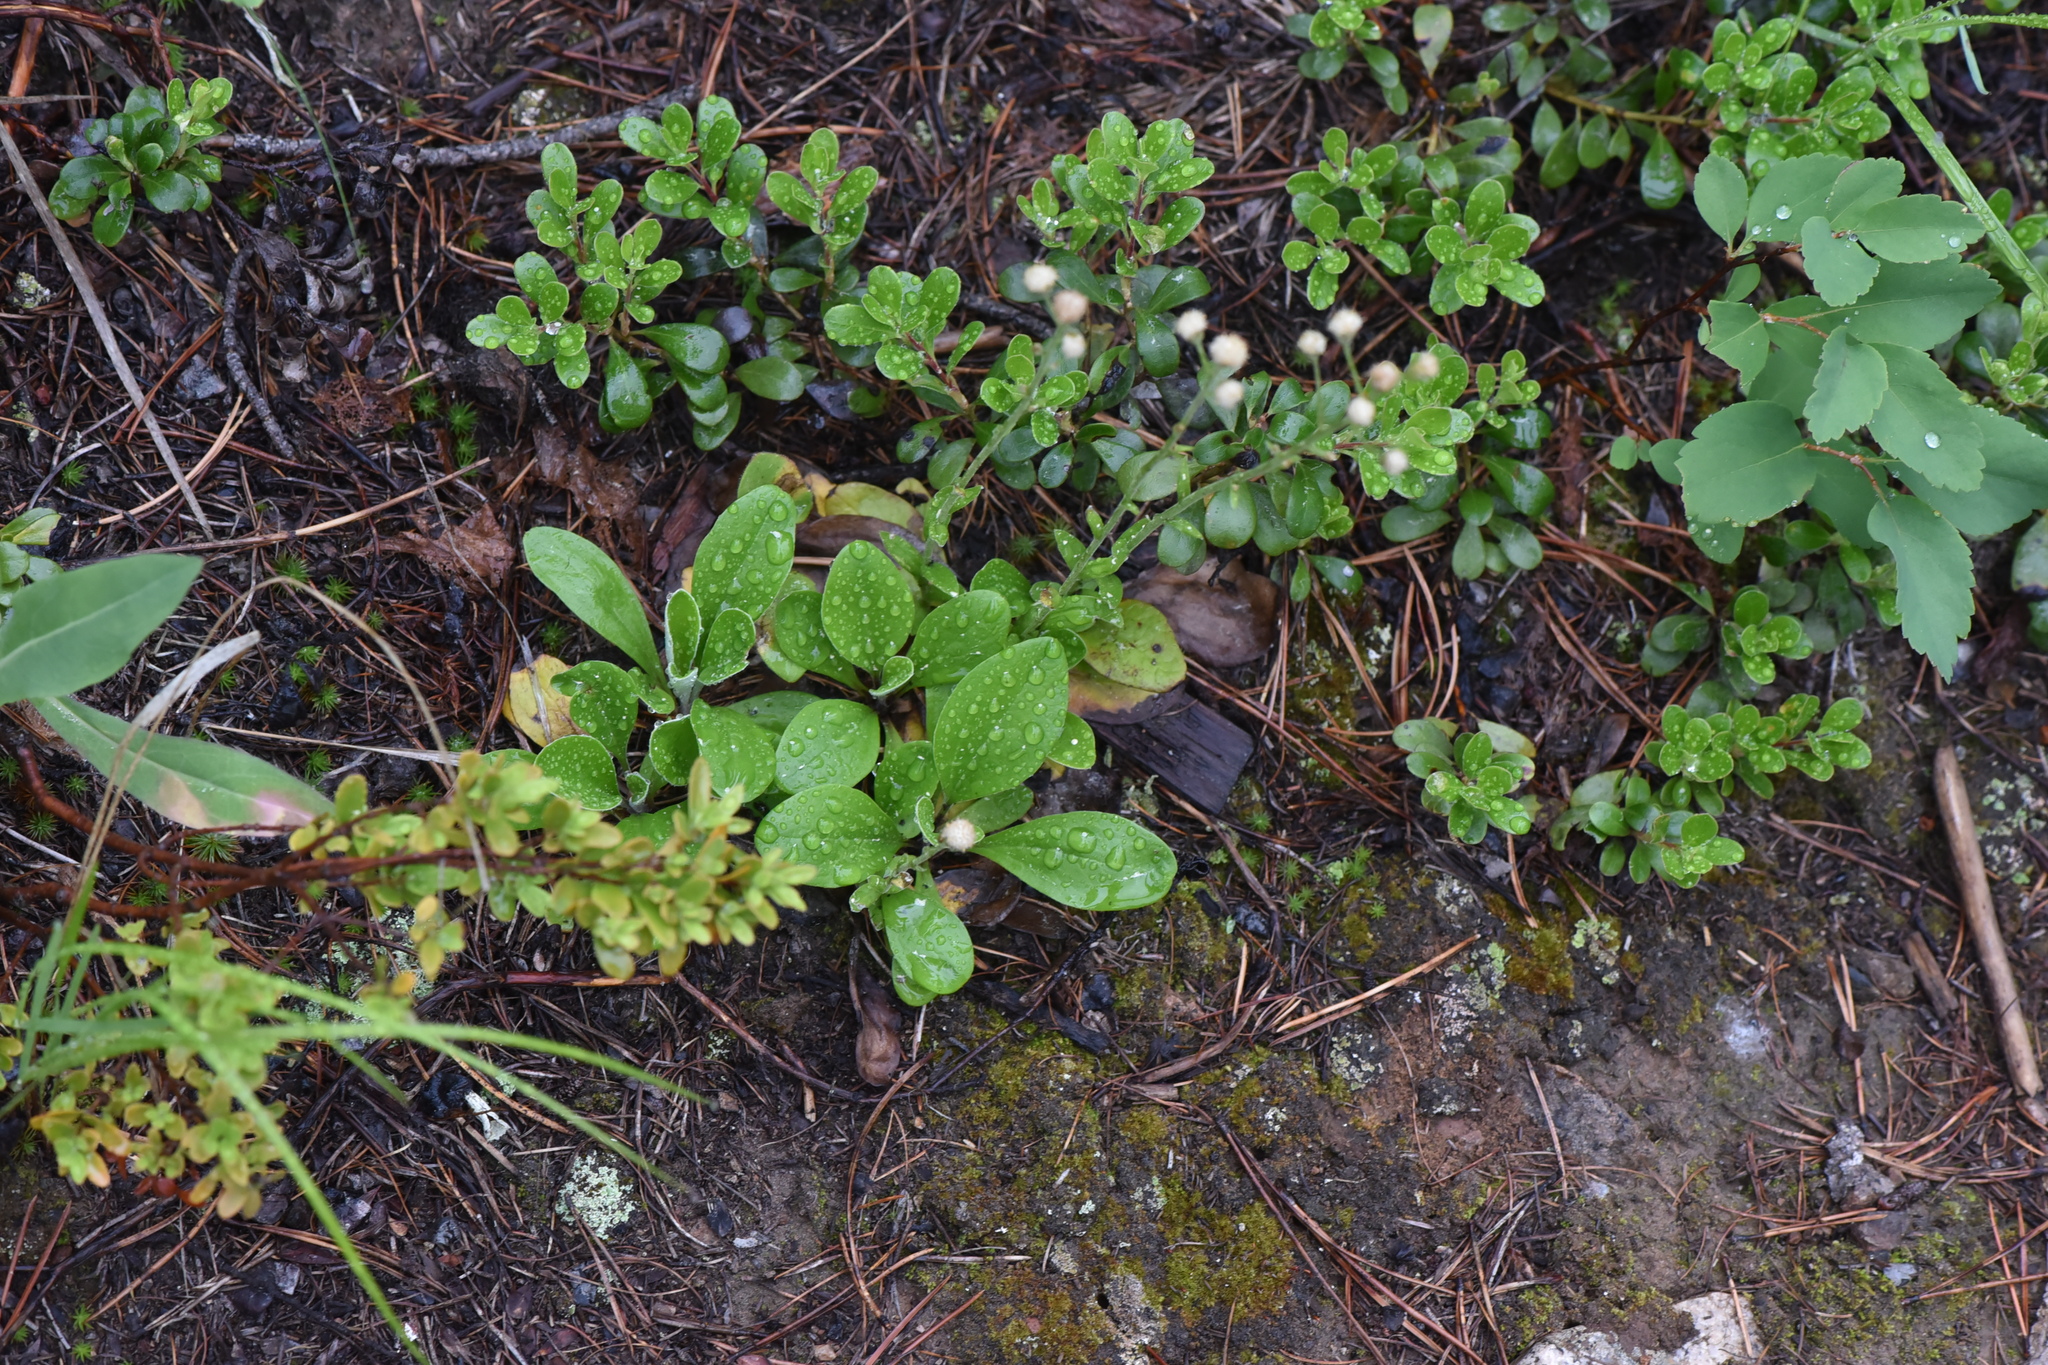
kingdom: Plantae
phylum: Tracheophyta
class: Magnoliopsida
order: Asterales
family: Asteraceae
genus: Antennaria
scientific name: Antennaria racemosa
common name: Racemose pussytoes
